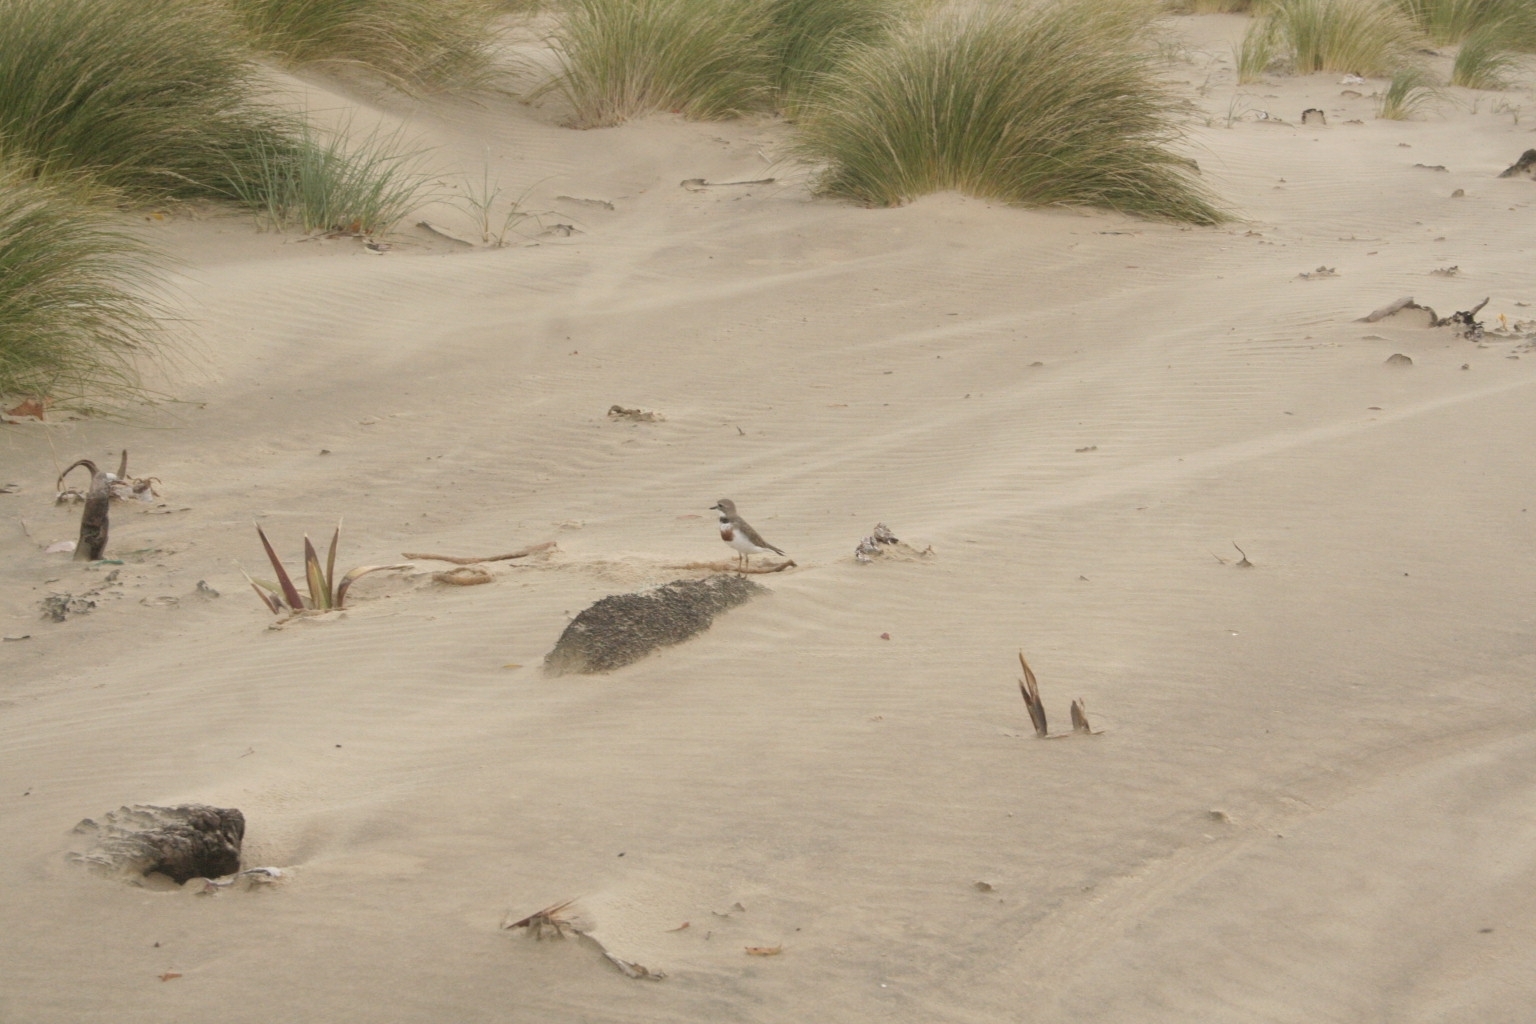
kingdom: Animalia
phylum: Chordata
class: Aves
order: Charadriiformes
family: Charadriidae
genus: Anarhynchus
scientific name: Anarhynchus
